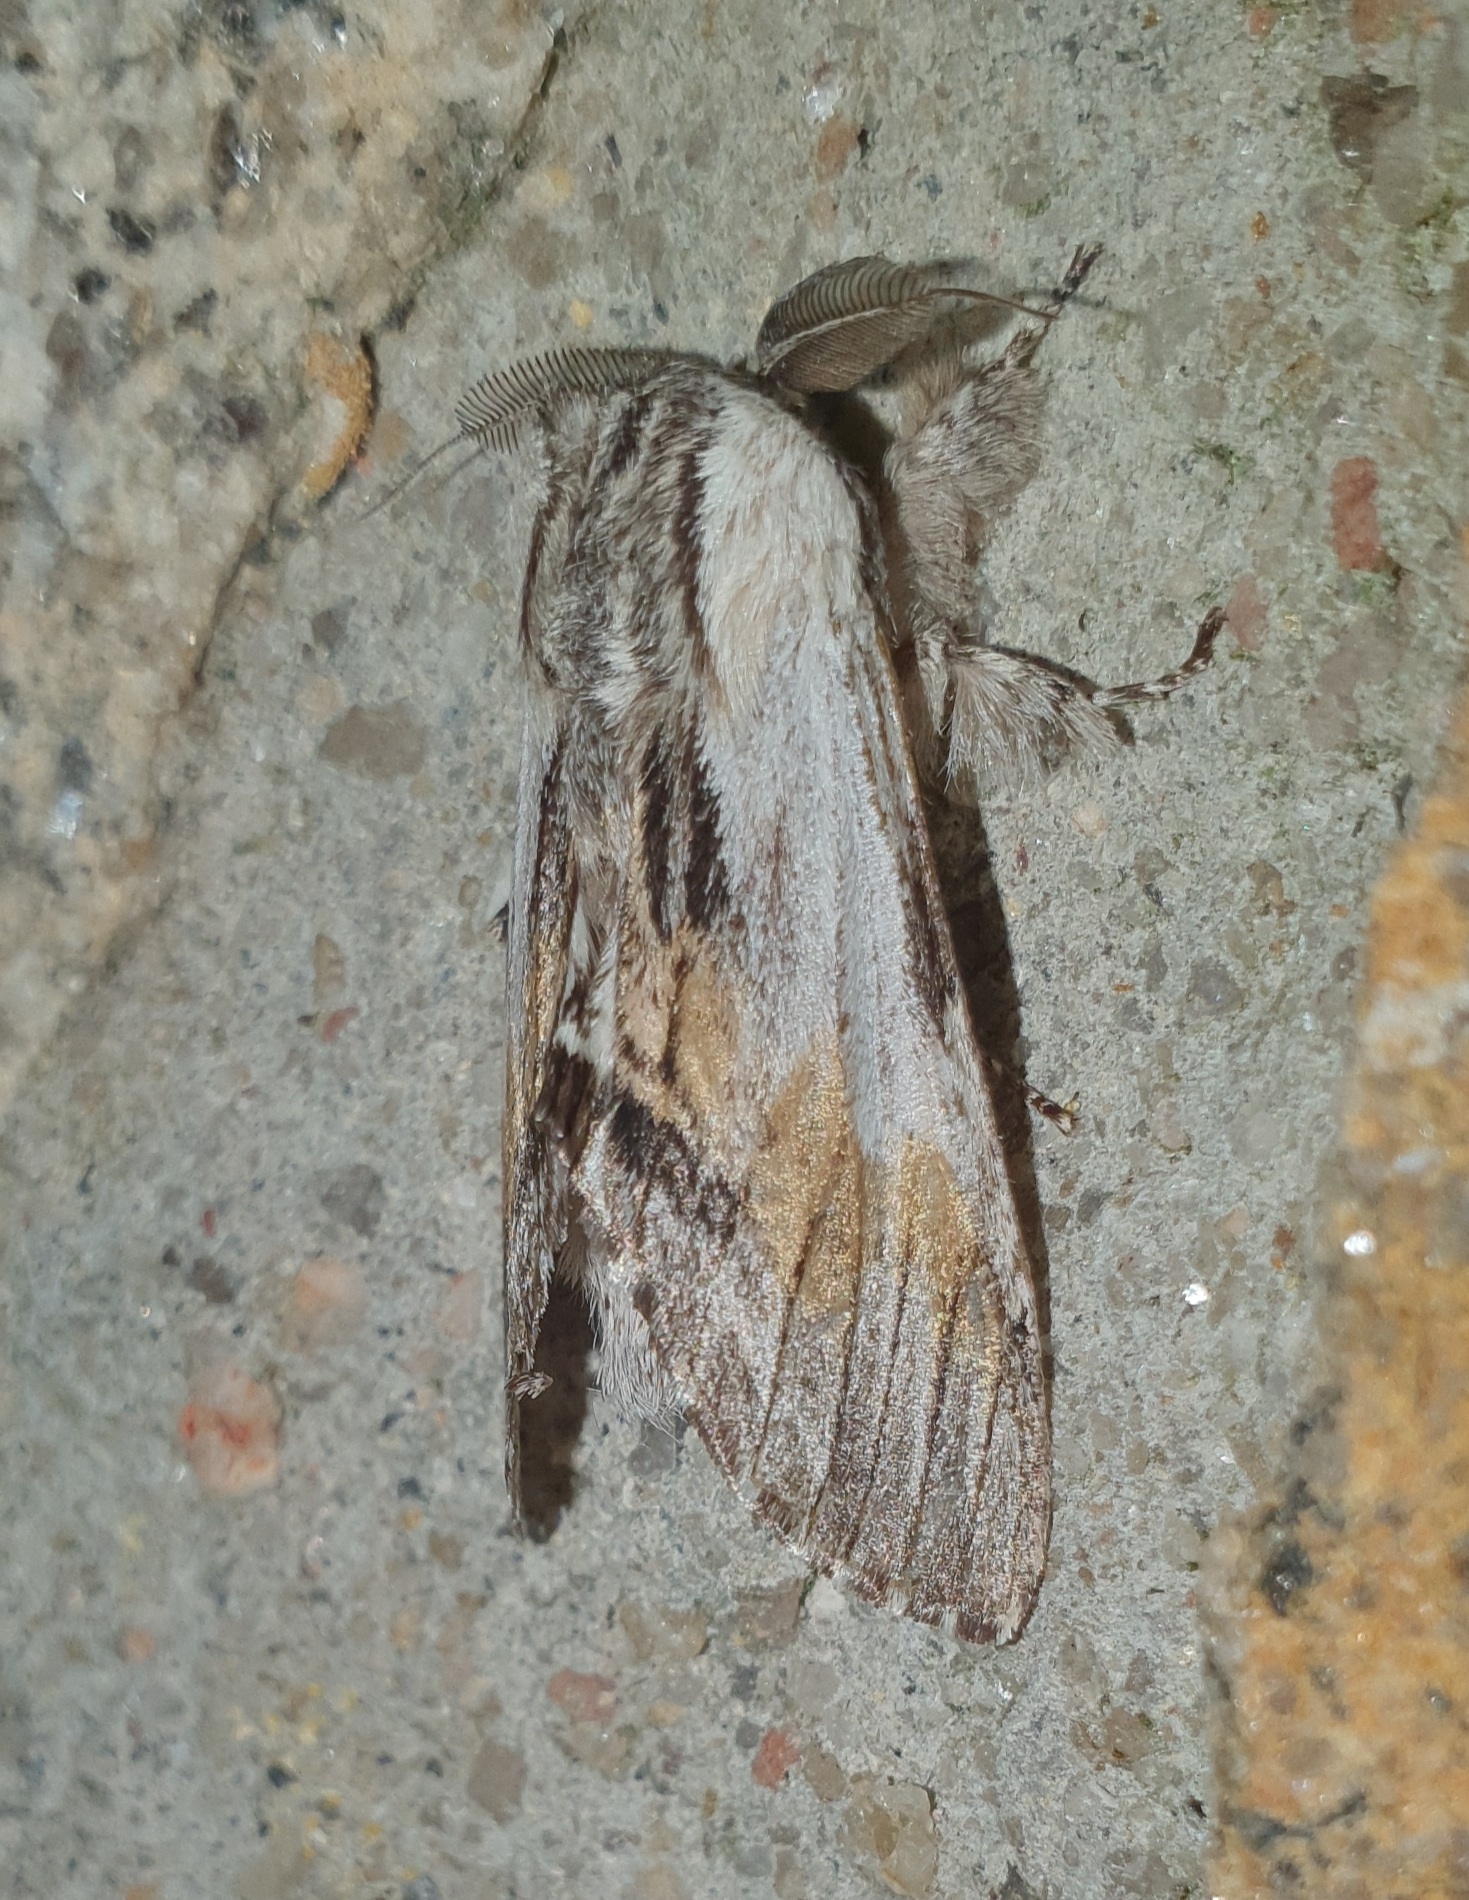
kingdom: Animalia
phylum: Arthropoda
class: Insecta
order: Lepidoptera
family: Notodontidae
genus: Harpyia
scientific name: Harpyia milhauseri
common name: Tawny prominent
